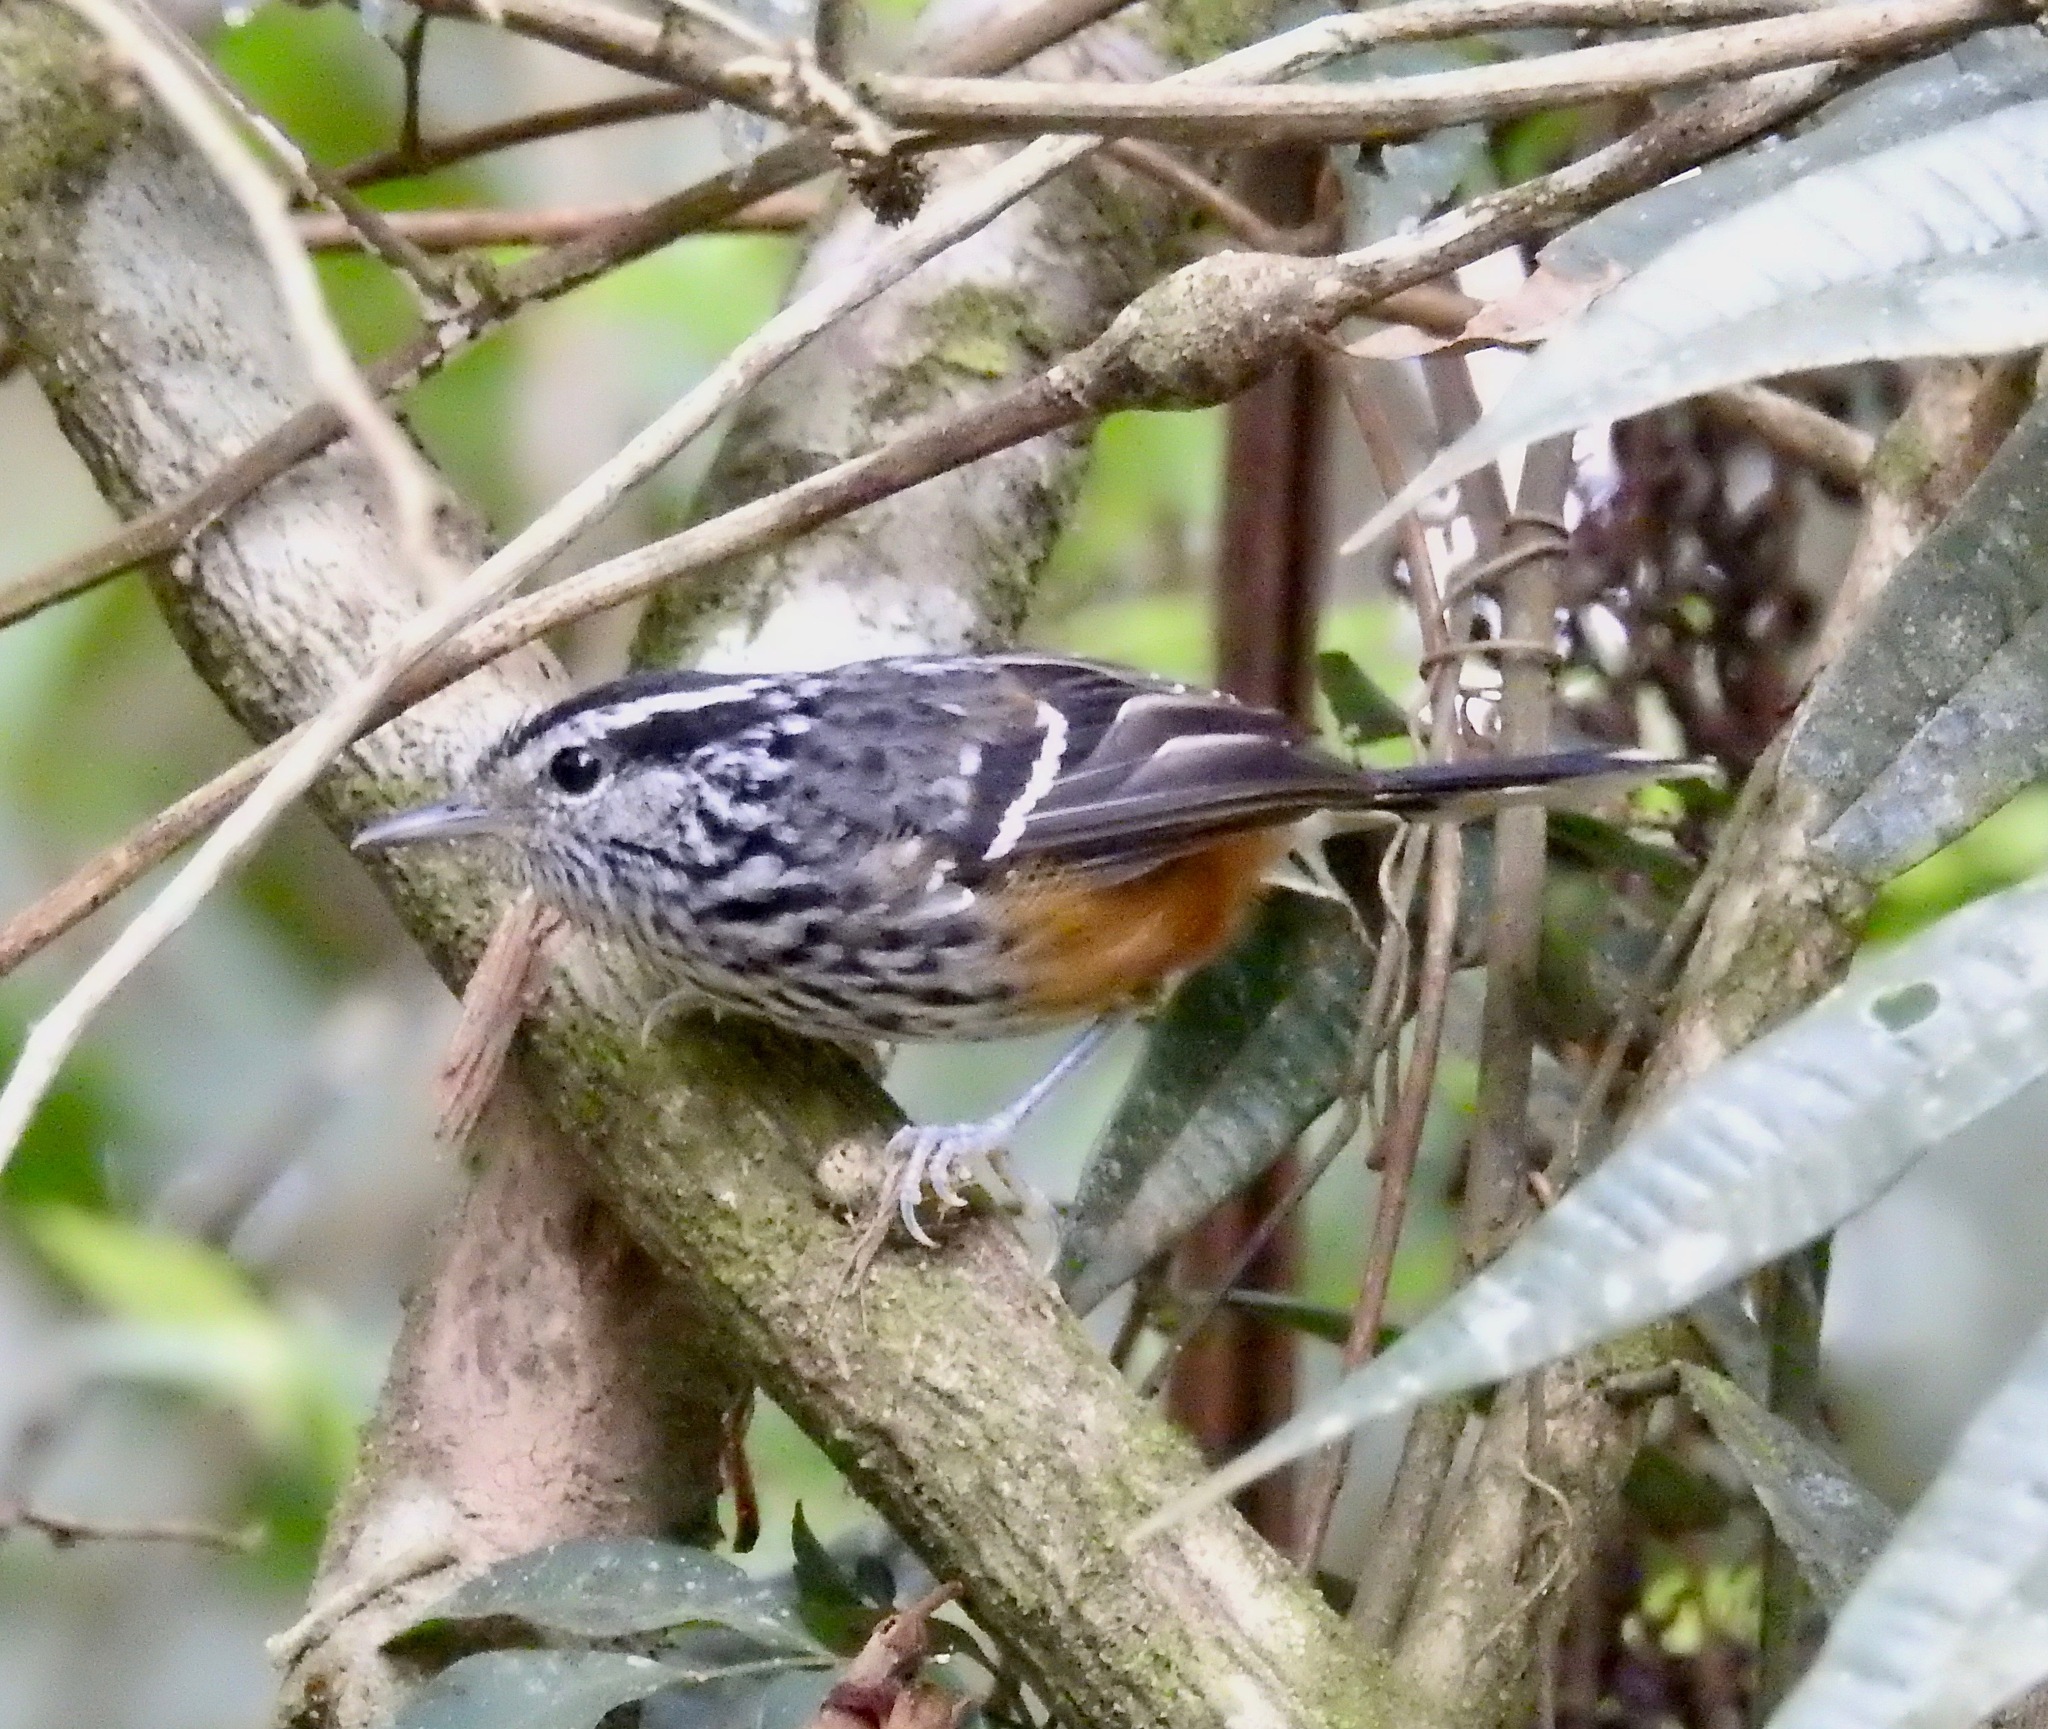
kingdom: Animalia
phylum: Chordata
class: Aves
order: Passeriformes
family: Thamnophilidae
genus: Drymophila
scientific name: Drymophila ochropyga
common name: Ochre-rumped antbird
